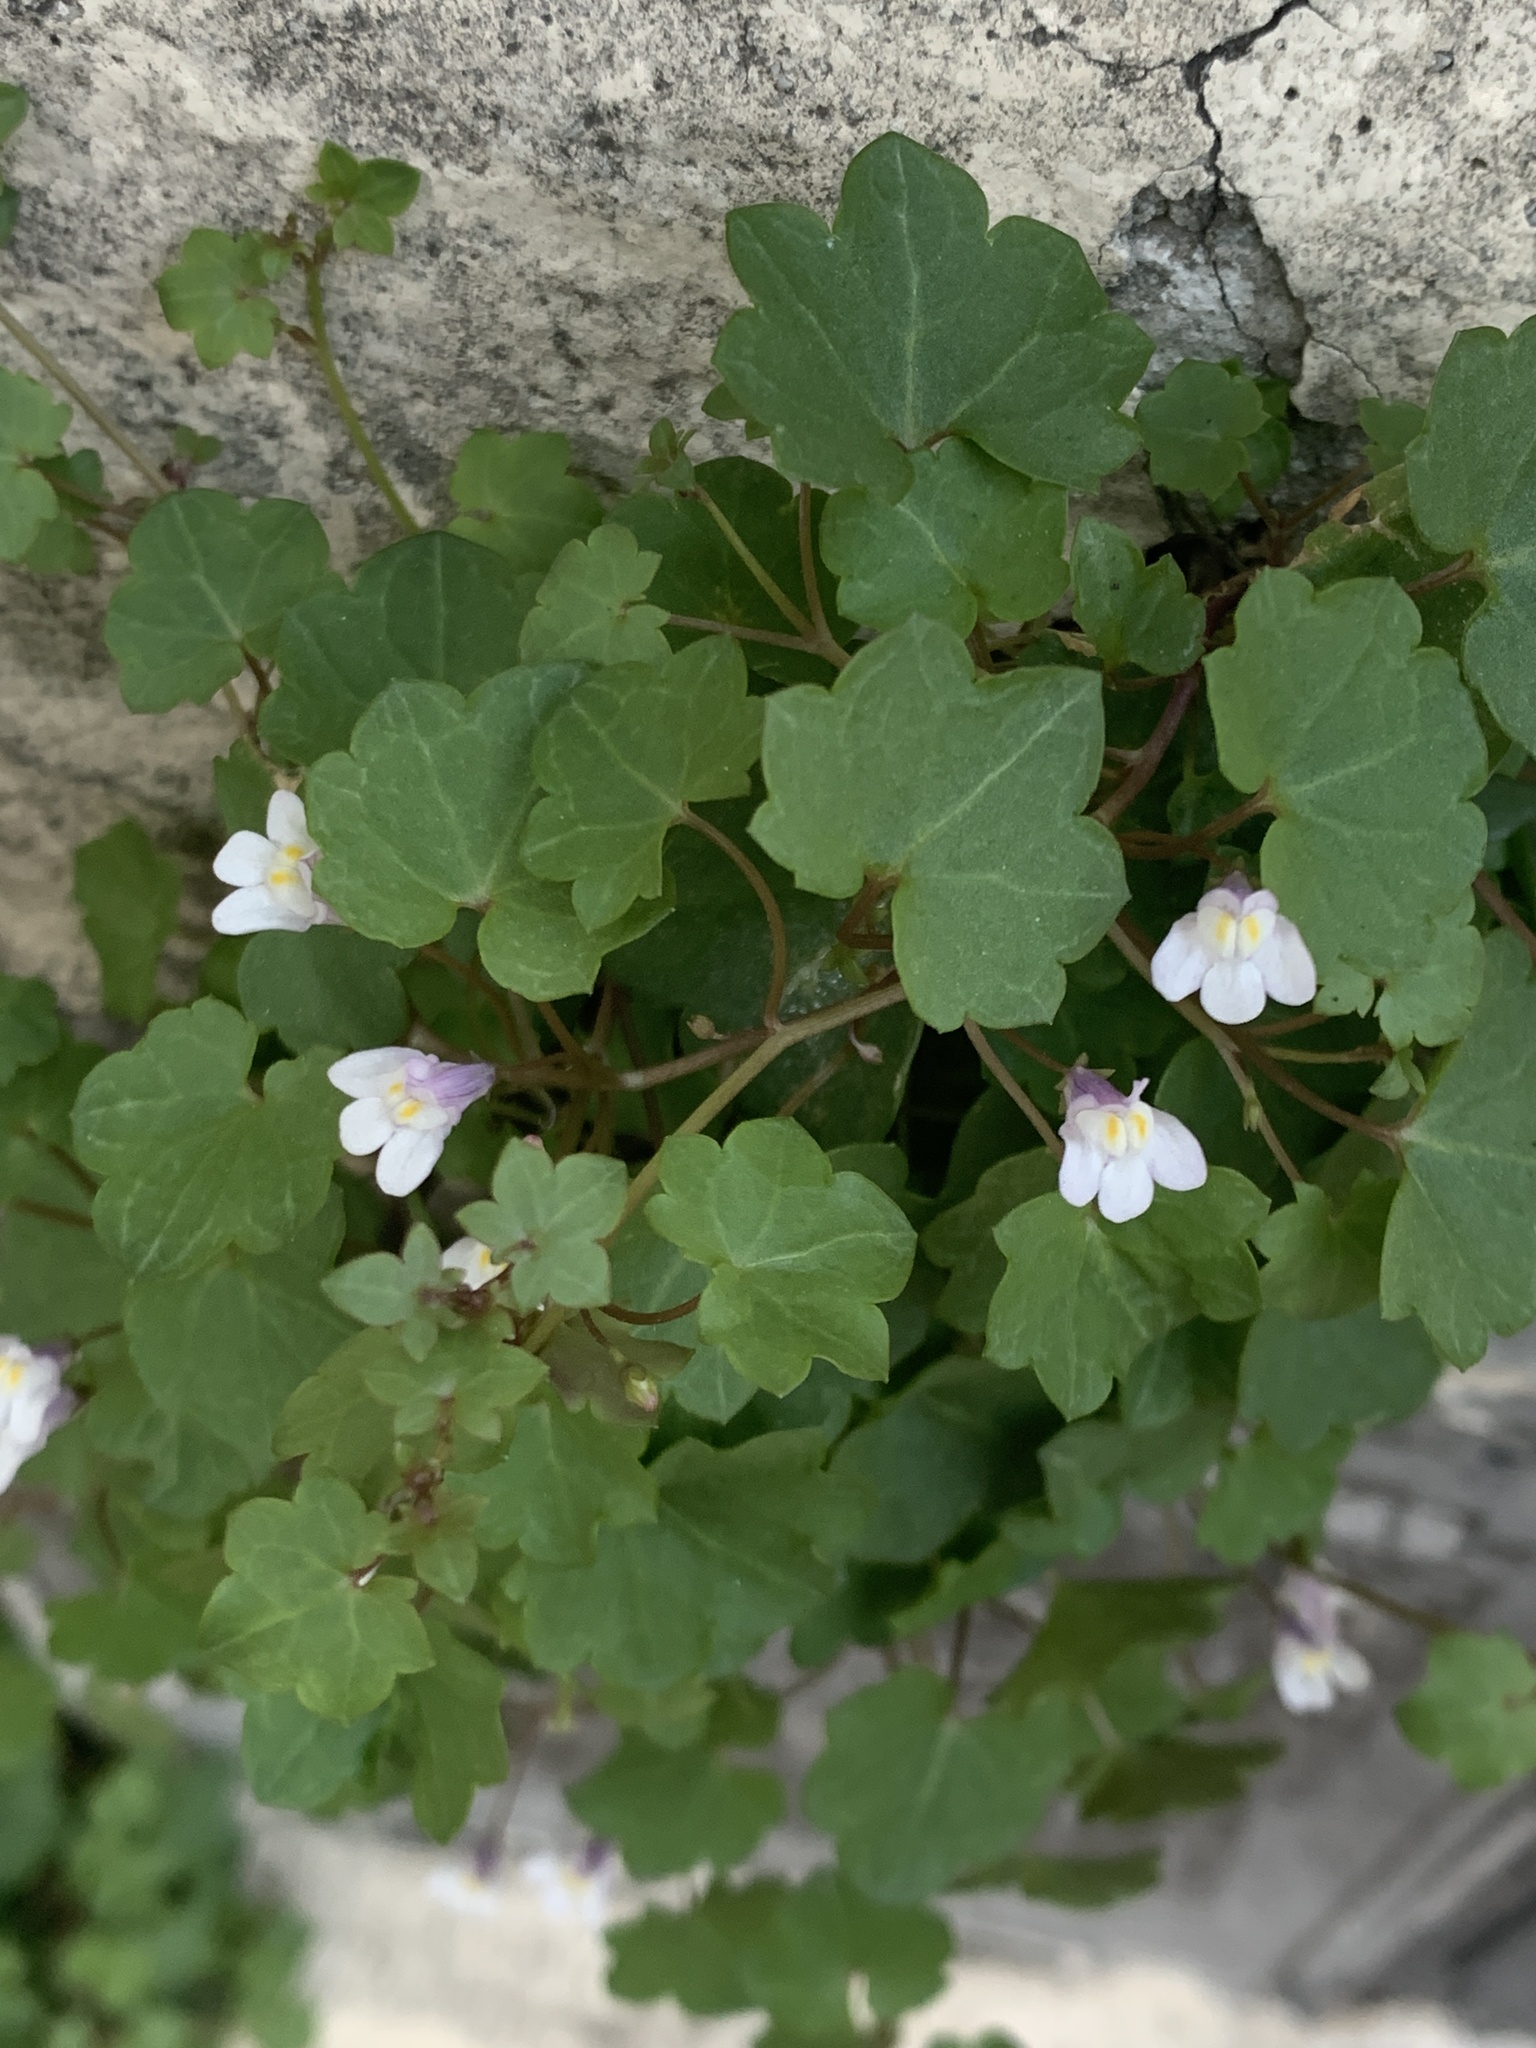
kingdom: Plantae
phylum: Tracheophyta
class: Magnoliopsida
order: Lamiales
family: Plantaginaceae
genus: Cymbalaria
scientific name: Cymbalaria muralis
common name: Ivy-leaved toadflax
